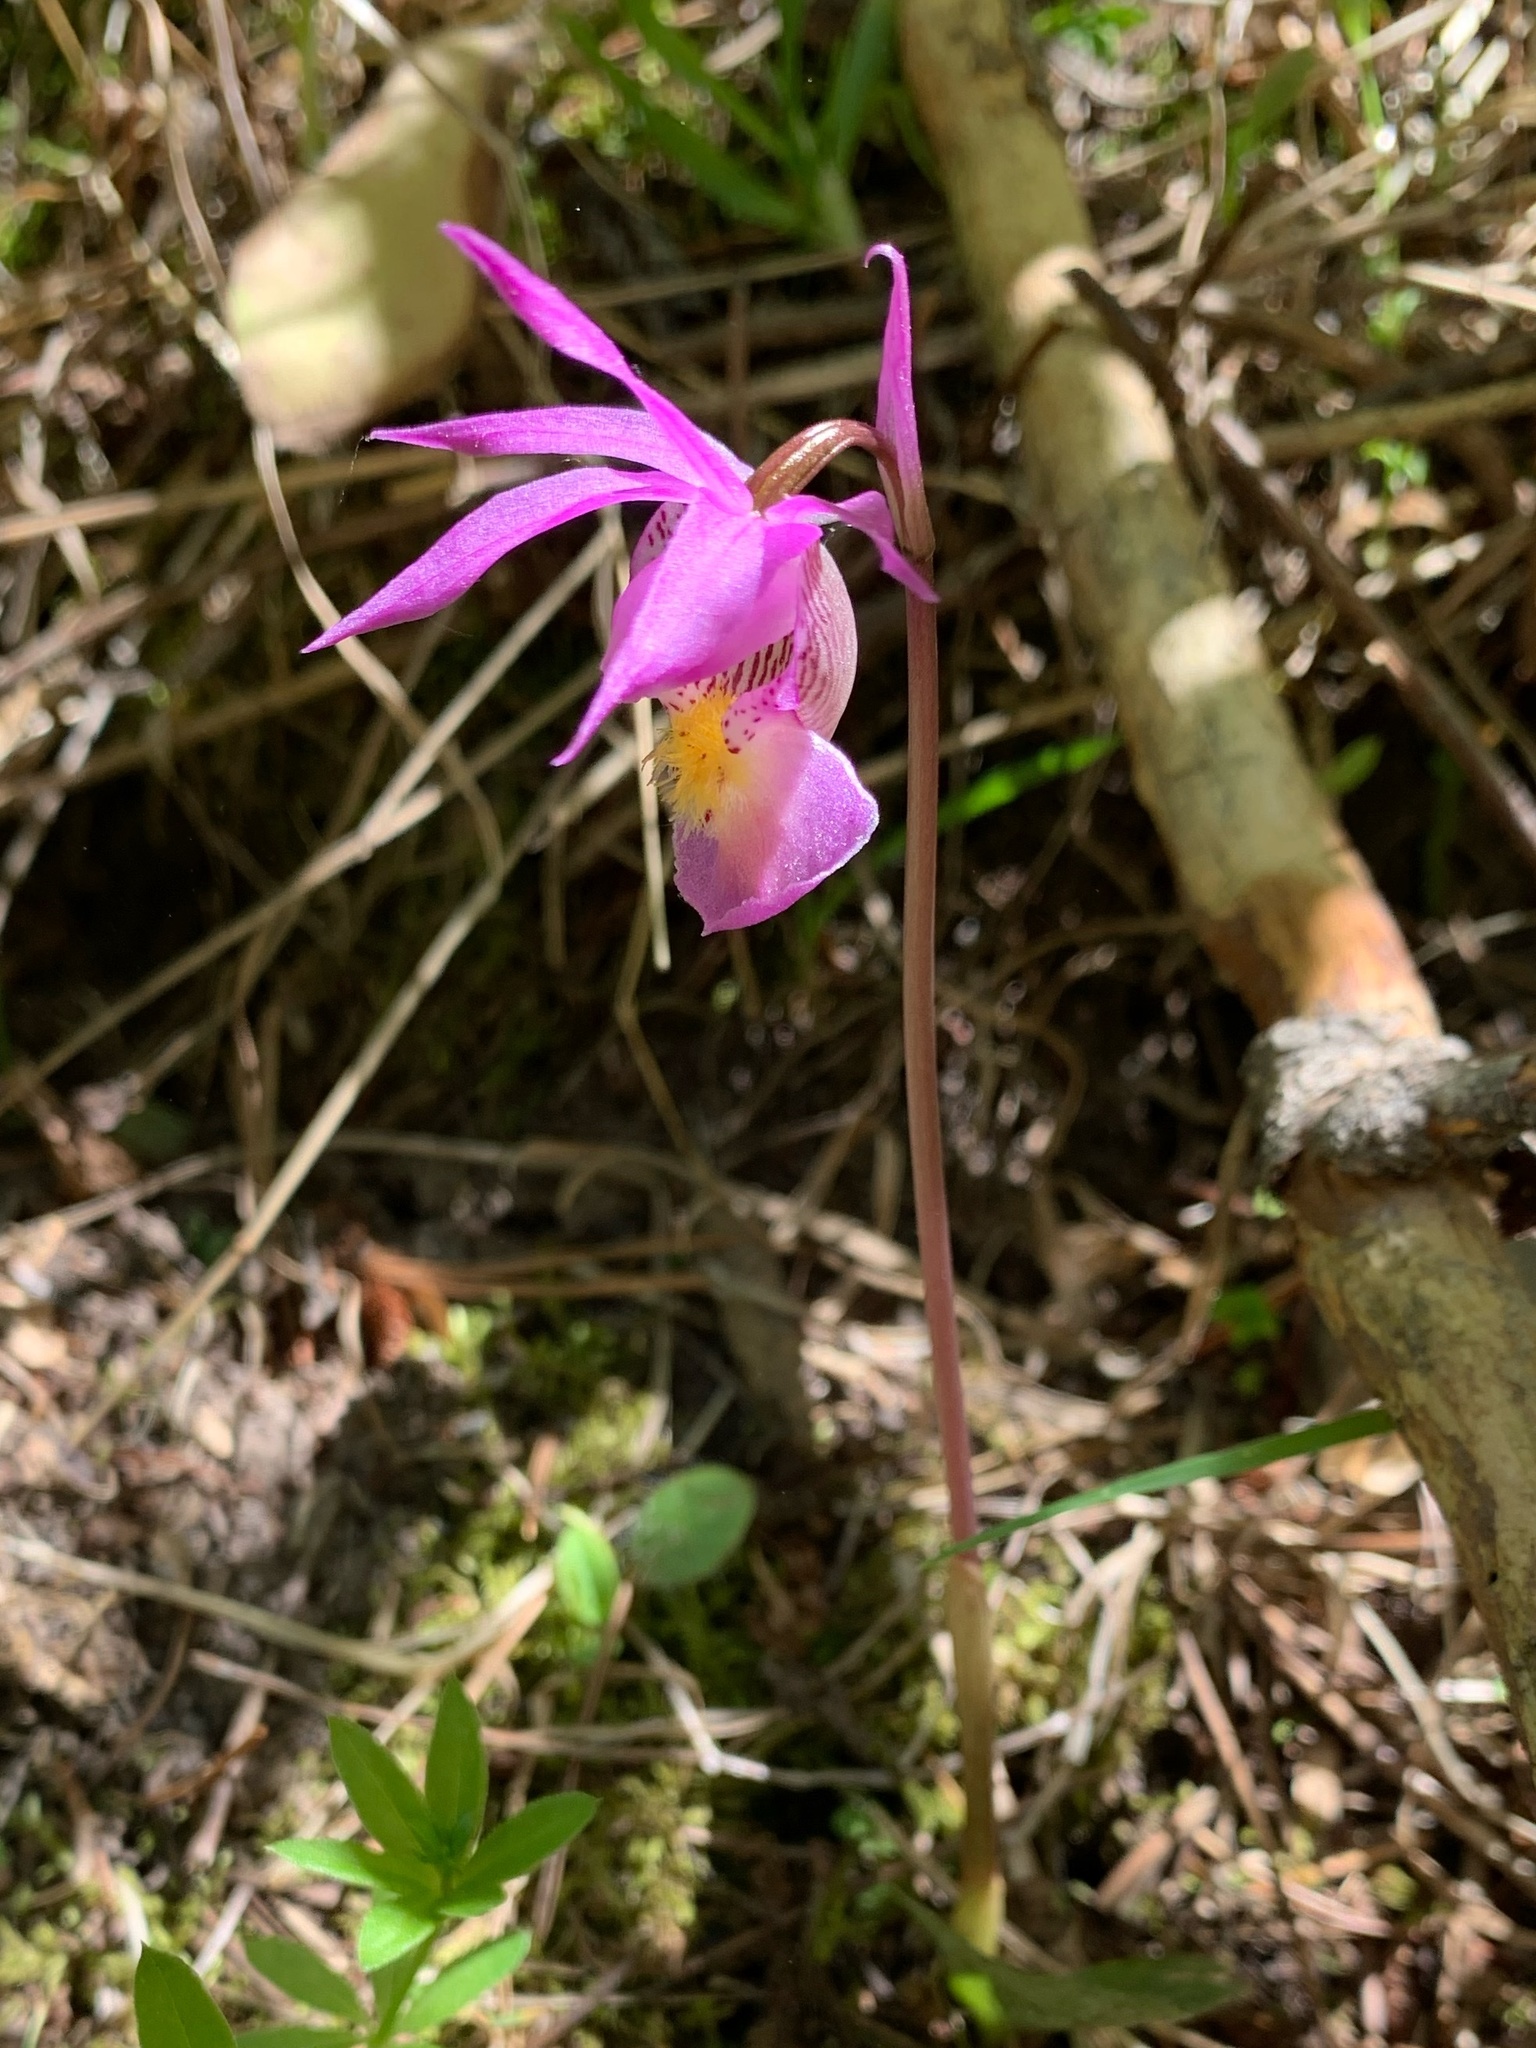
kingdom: Plantae
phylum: Tracheophyta
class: Liliopsida
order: Asparagales
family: Orchidaceae
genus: Calypso
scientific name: Calypso bulbosa
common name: Calypso
